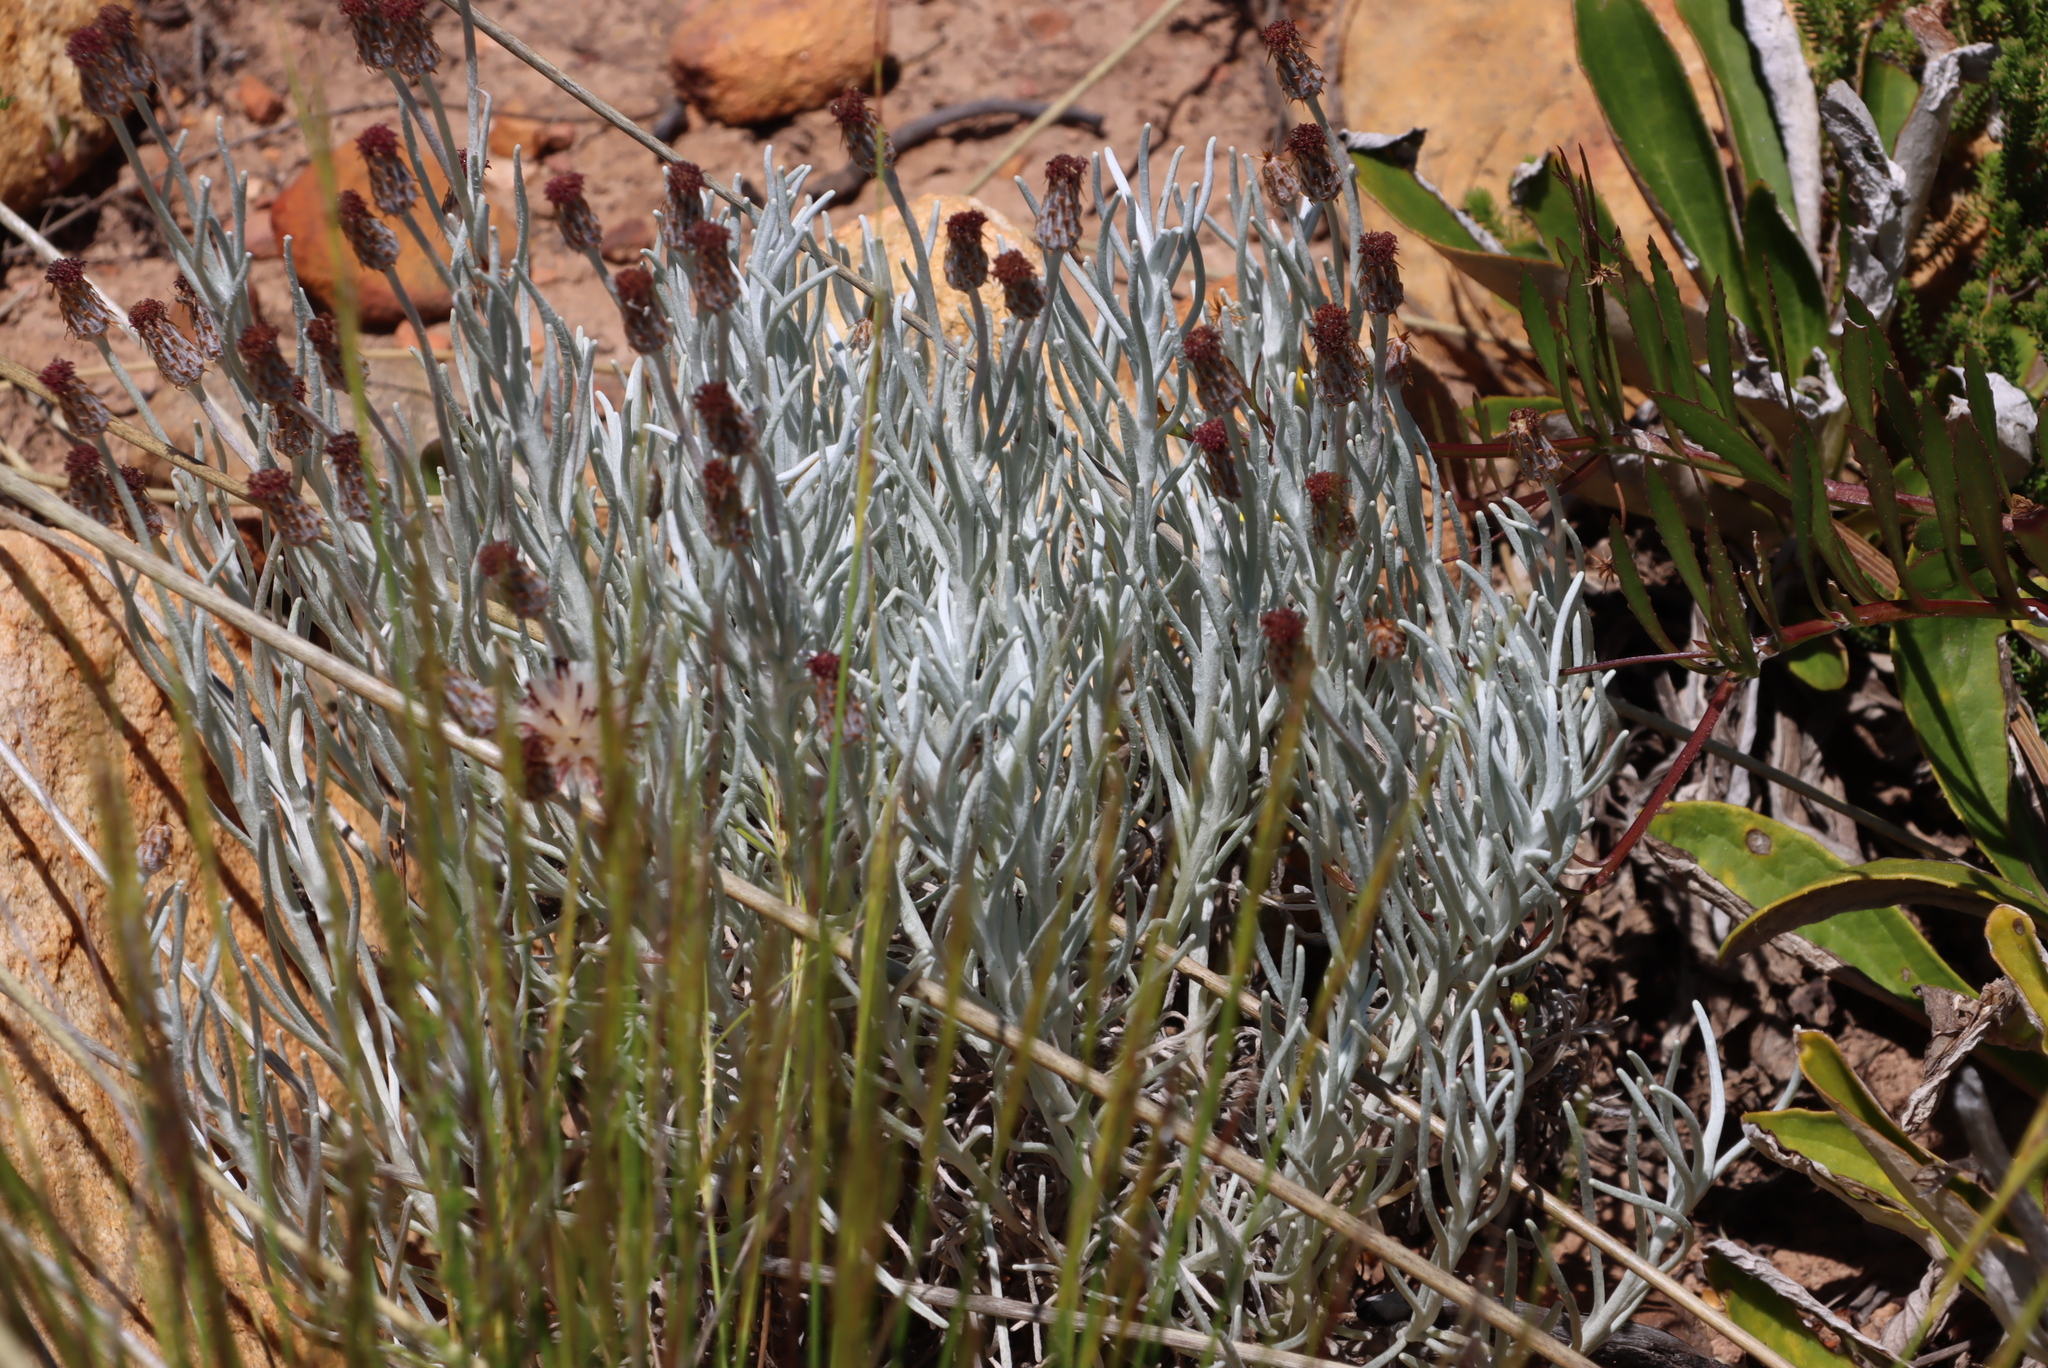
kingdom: Plantae
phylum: Tracheophyta
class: Magnoliopsida
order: Asterales
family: Asteraceae
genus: Syncarpha
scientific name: Syncarpha gnaphaloides
